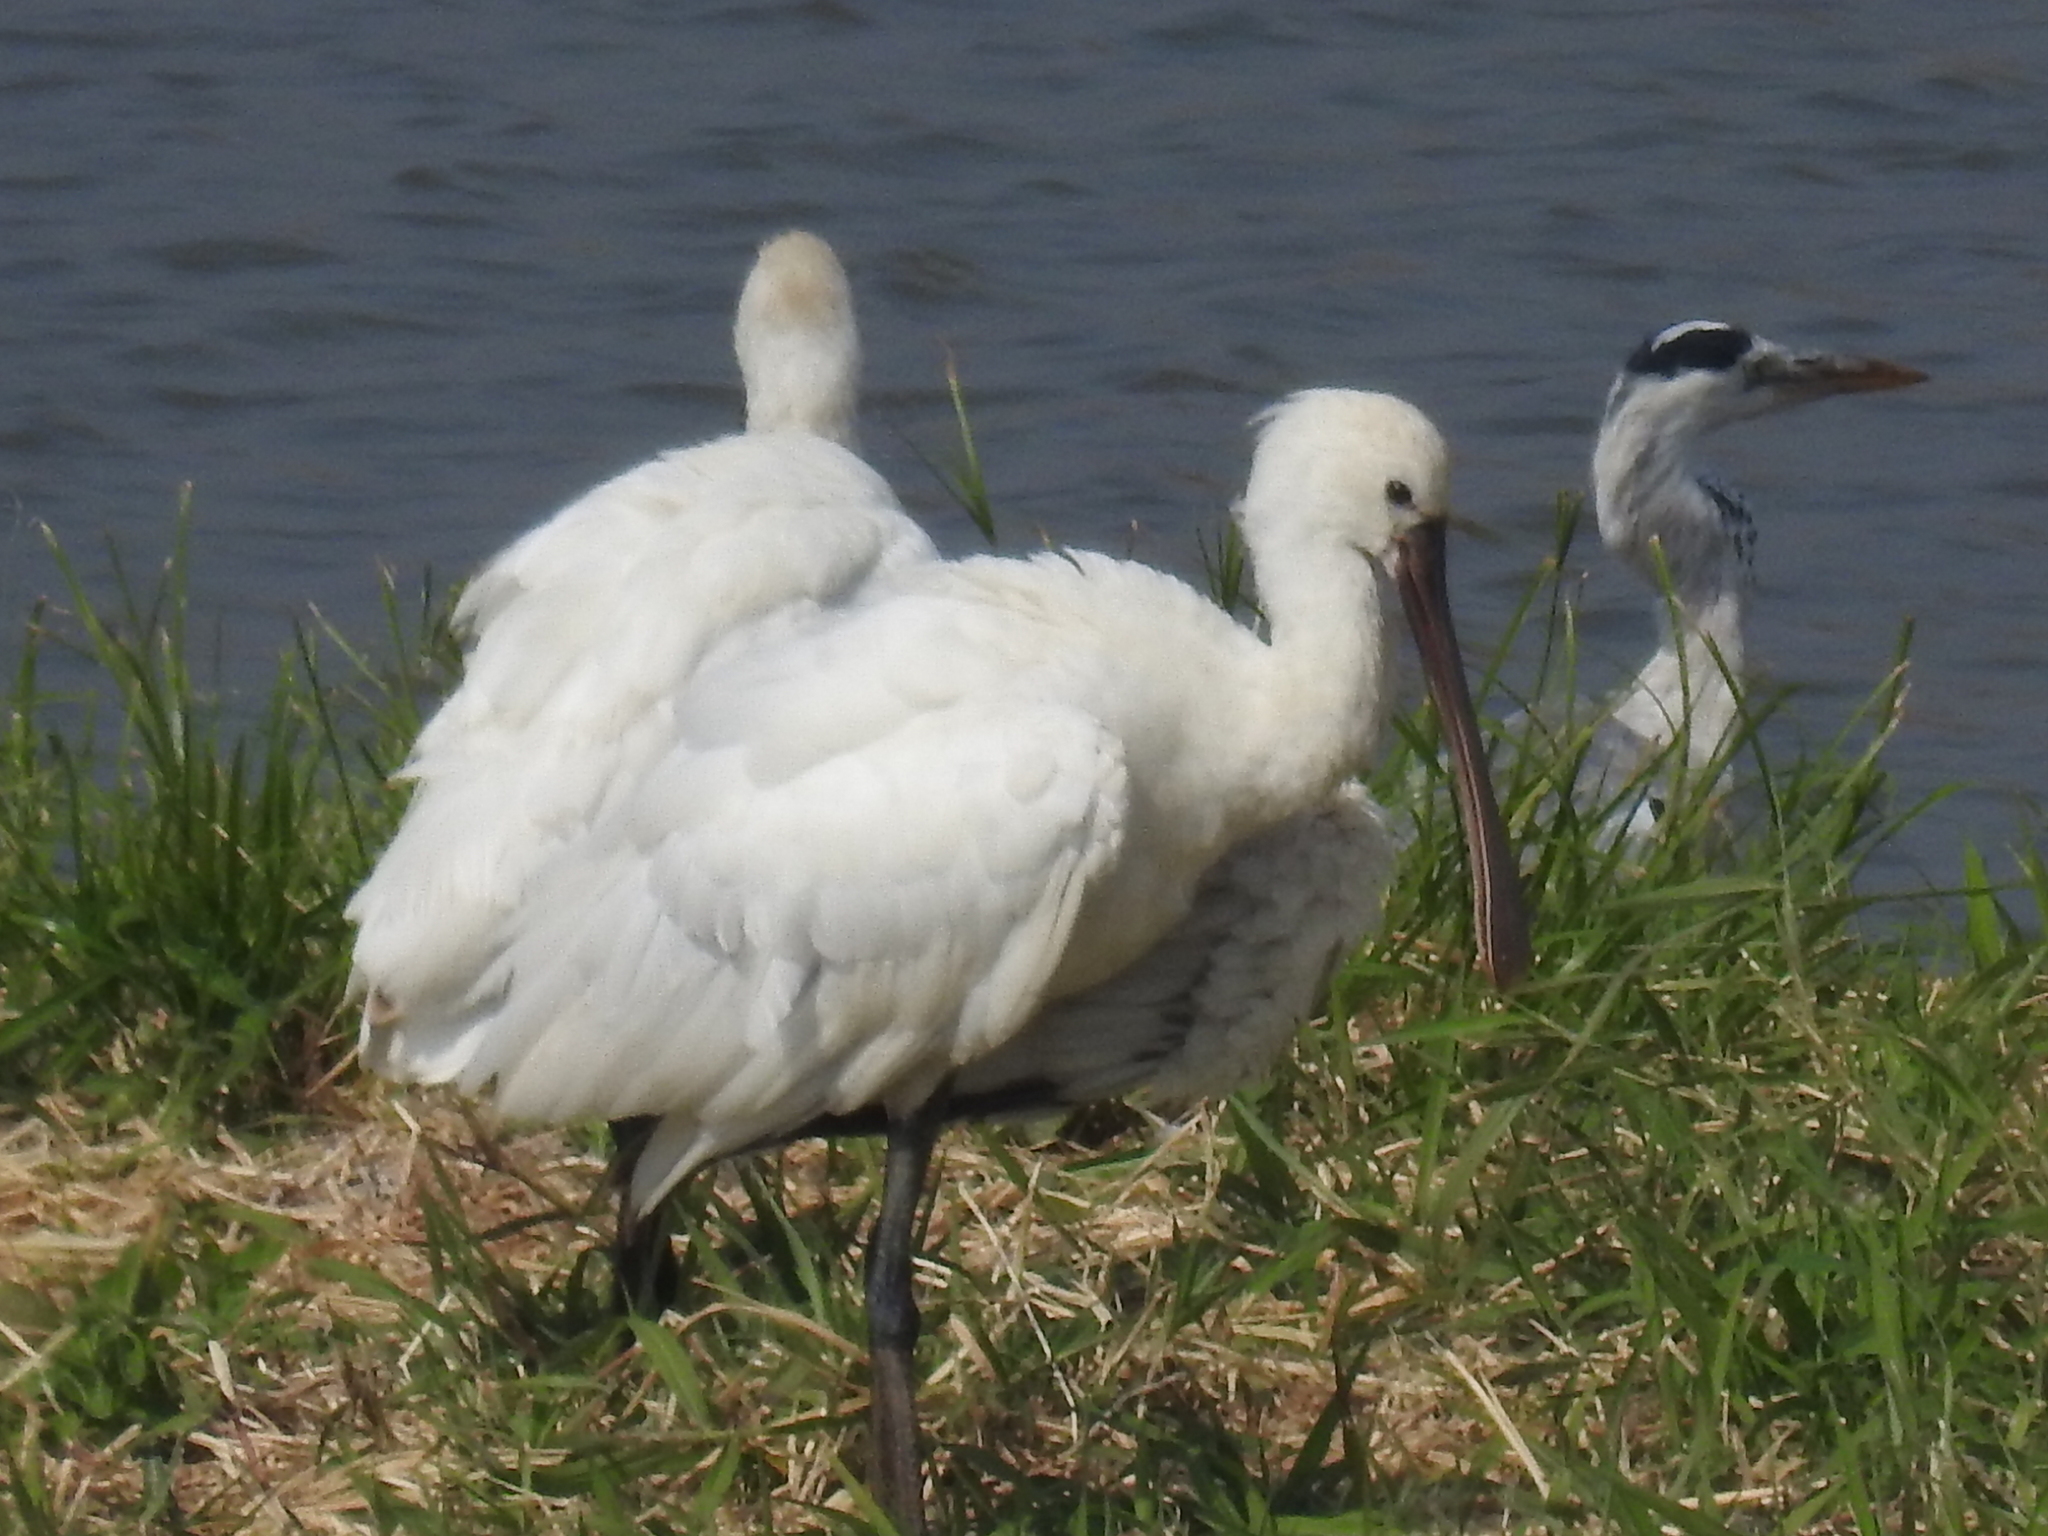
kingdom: Animalia
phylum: Chordata
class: Aves
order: Pelecaniformes
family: Threskiornithidae
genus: Platalea
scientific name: Platalea leucorodia
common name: Eurasian spoonbill
